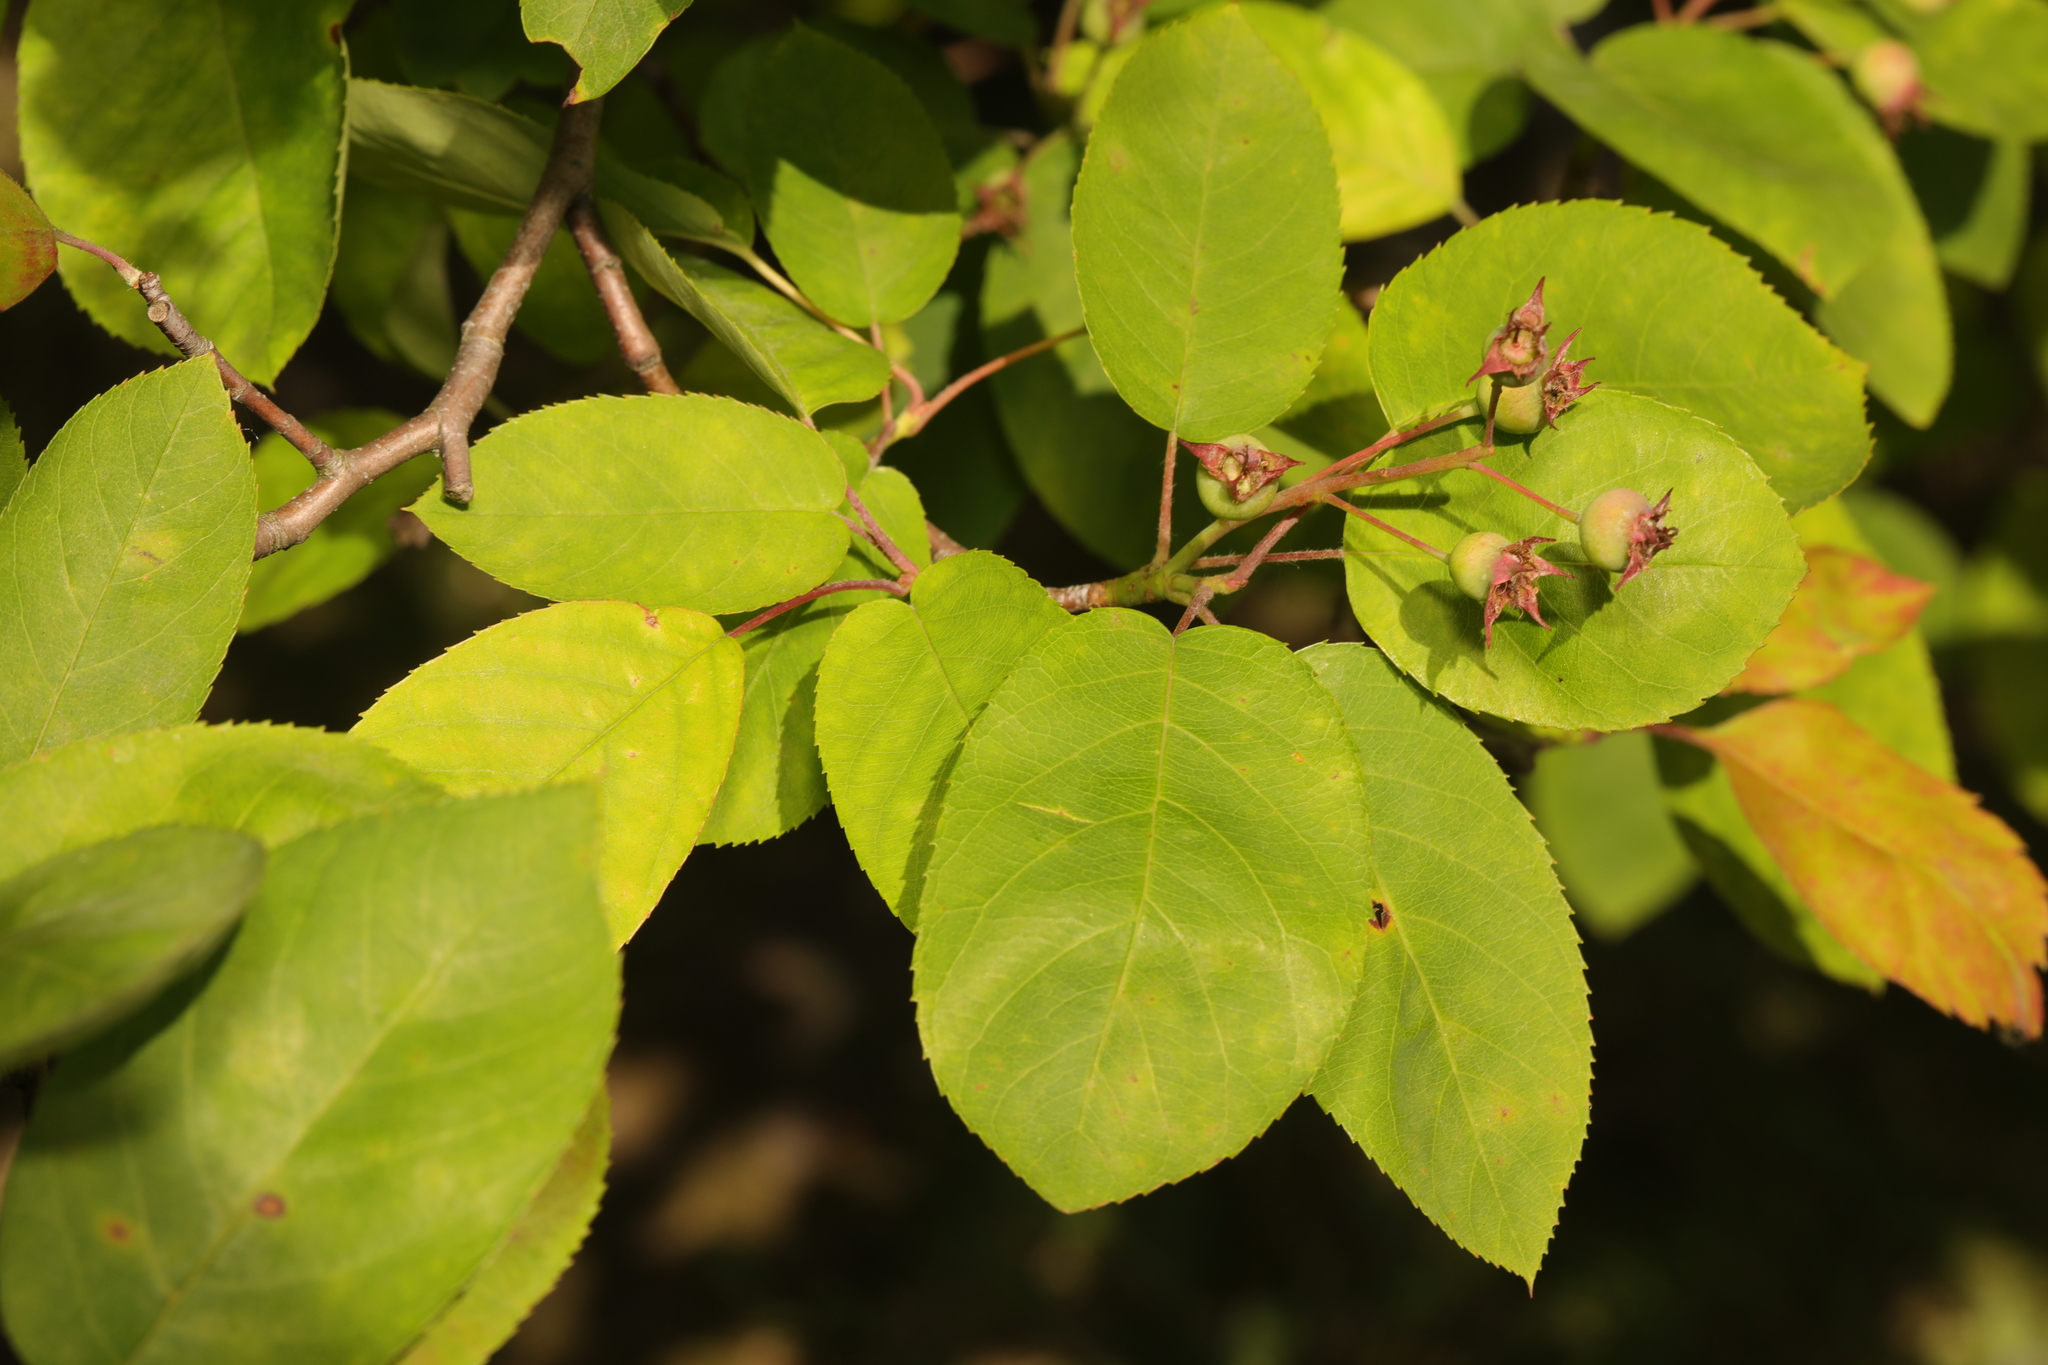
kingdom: Plantae
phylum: Tracheophyta
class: Magnoliopsida
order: Rosales
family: Rosaceae
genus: Amelanchier
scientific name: Amelanchier lamarckii
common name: Juneberry
